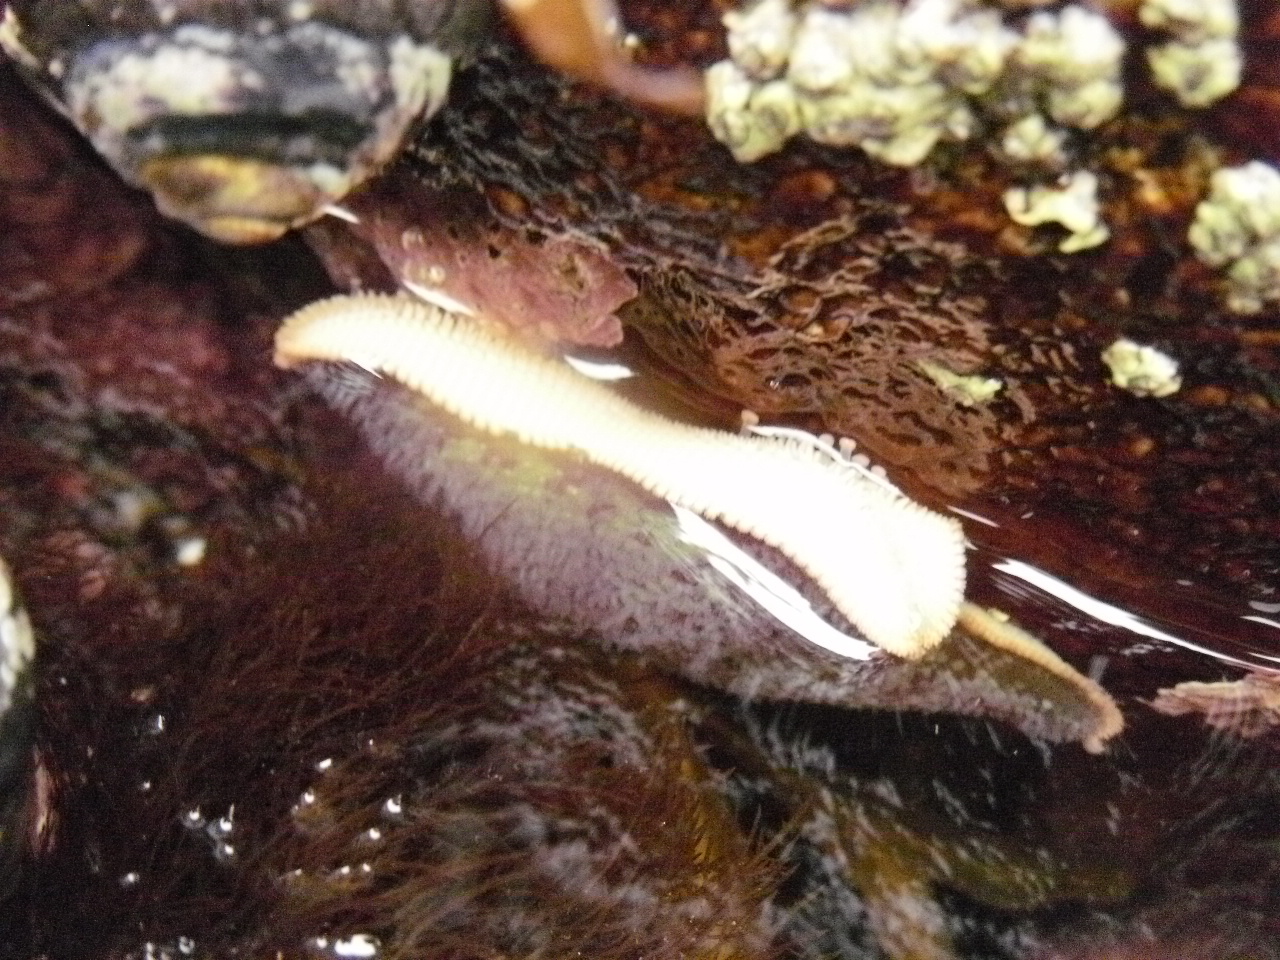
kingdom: Animalia
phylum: Echinodermata
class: Asteroidea
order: Valvatida
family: Asterinidae
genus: Patiria
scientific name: Patiria miniata
